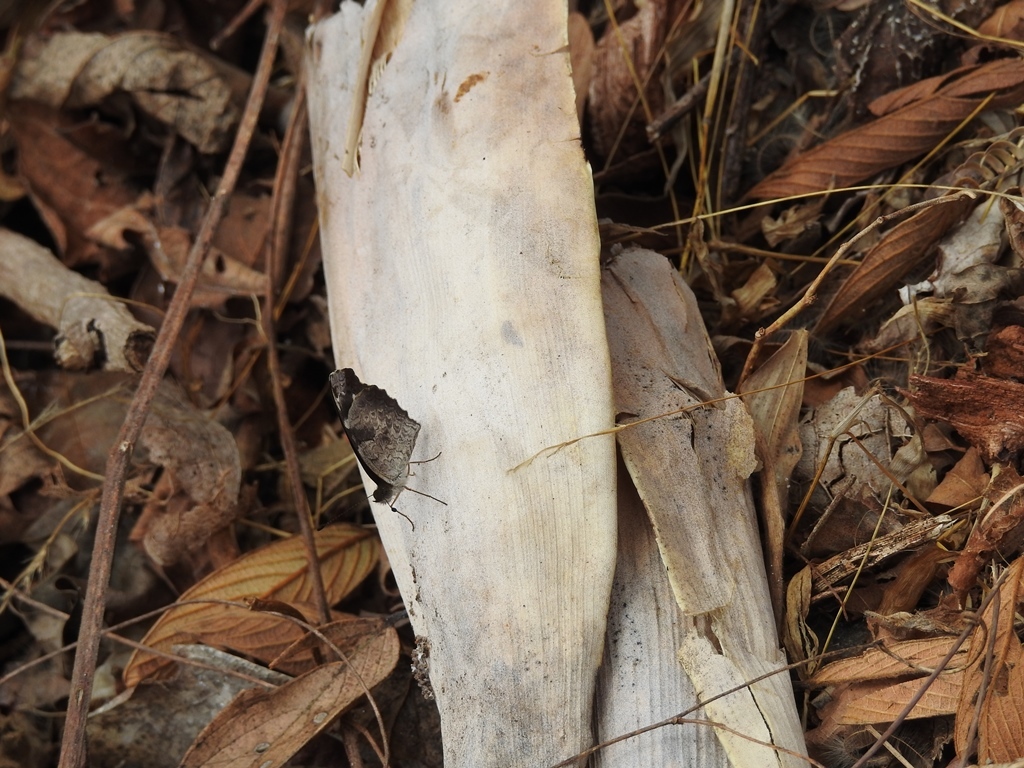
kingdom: Animalia
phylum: Arthropoda
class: Insecta
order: Lepidoptera
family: Nymphalidae
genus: Anthanassa
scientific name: Anthanassa atronia
